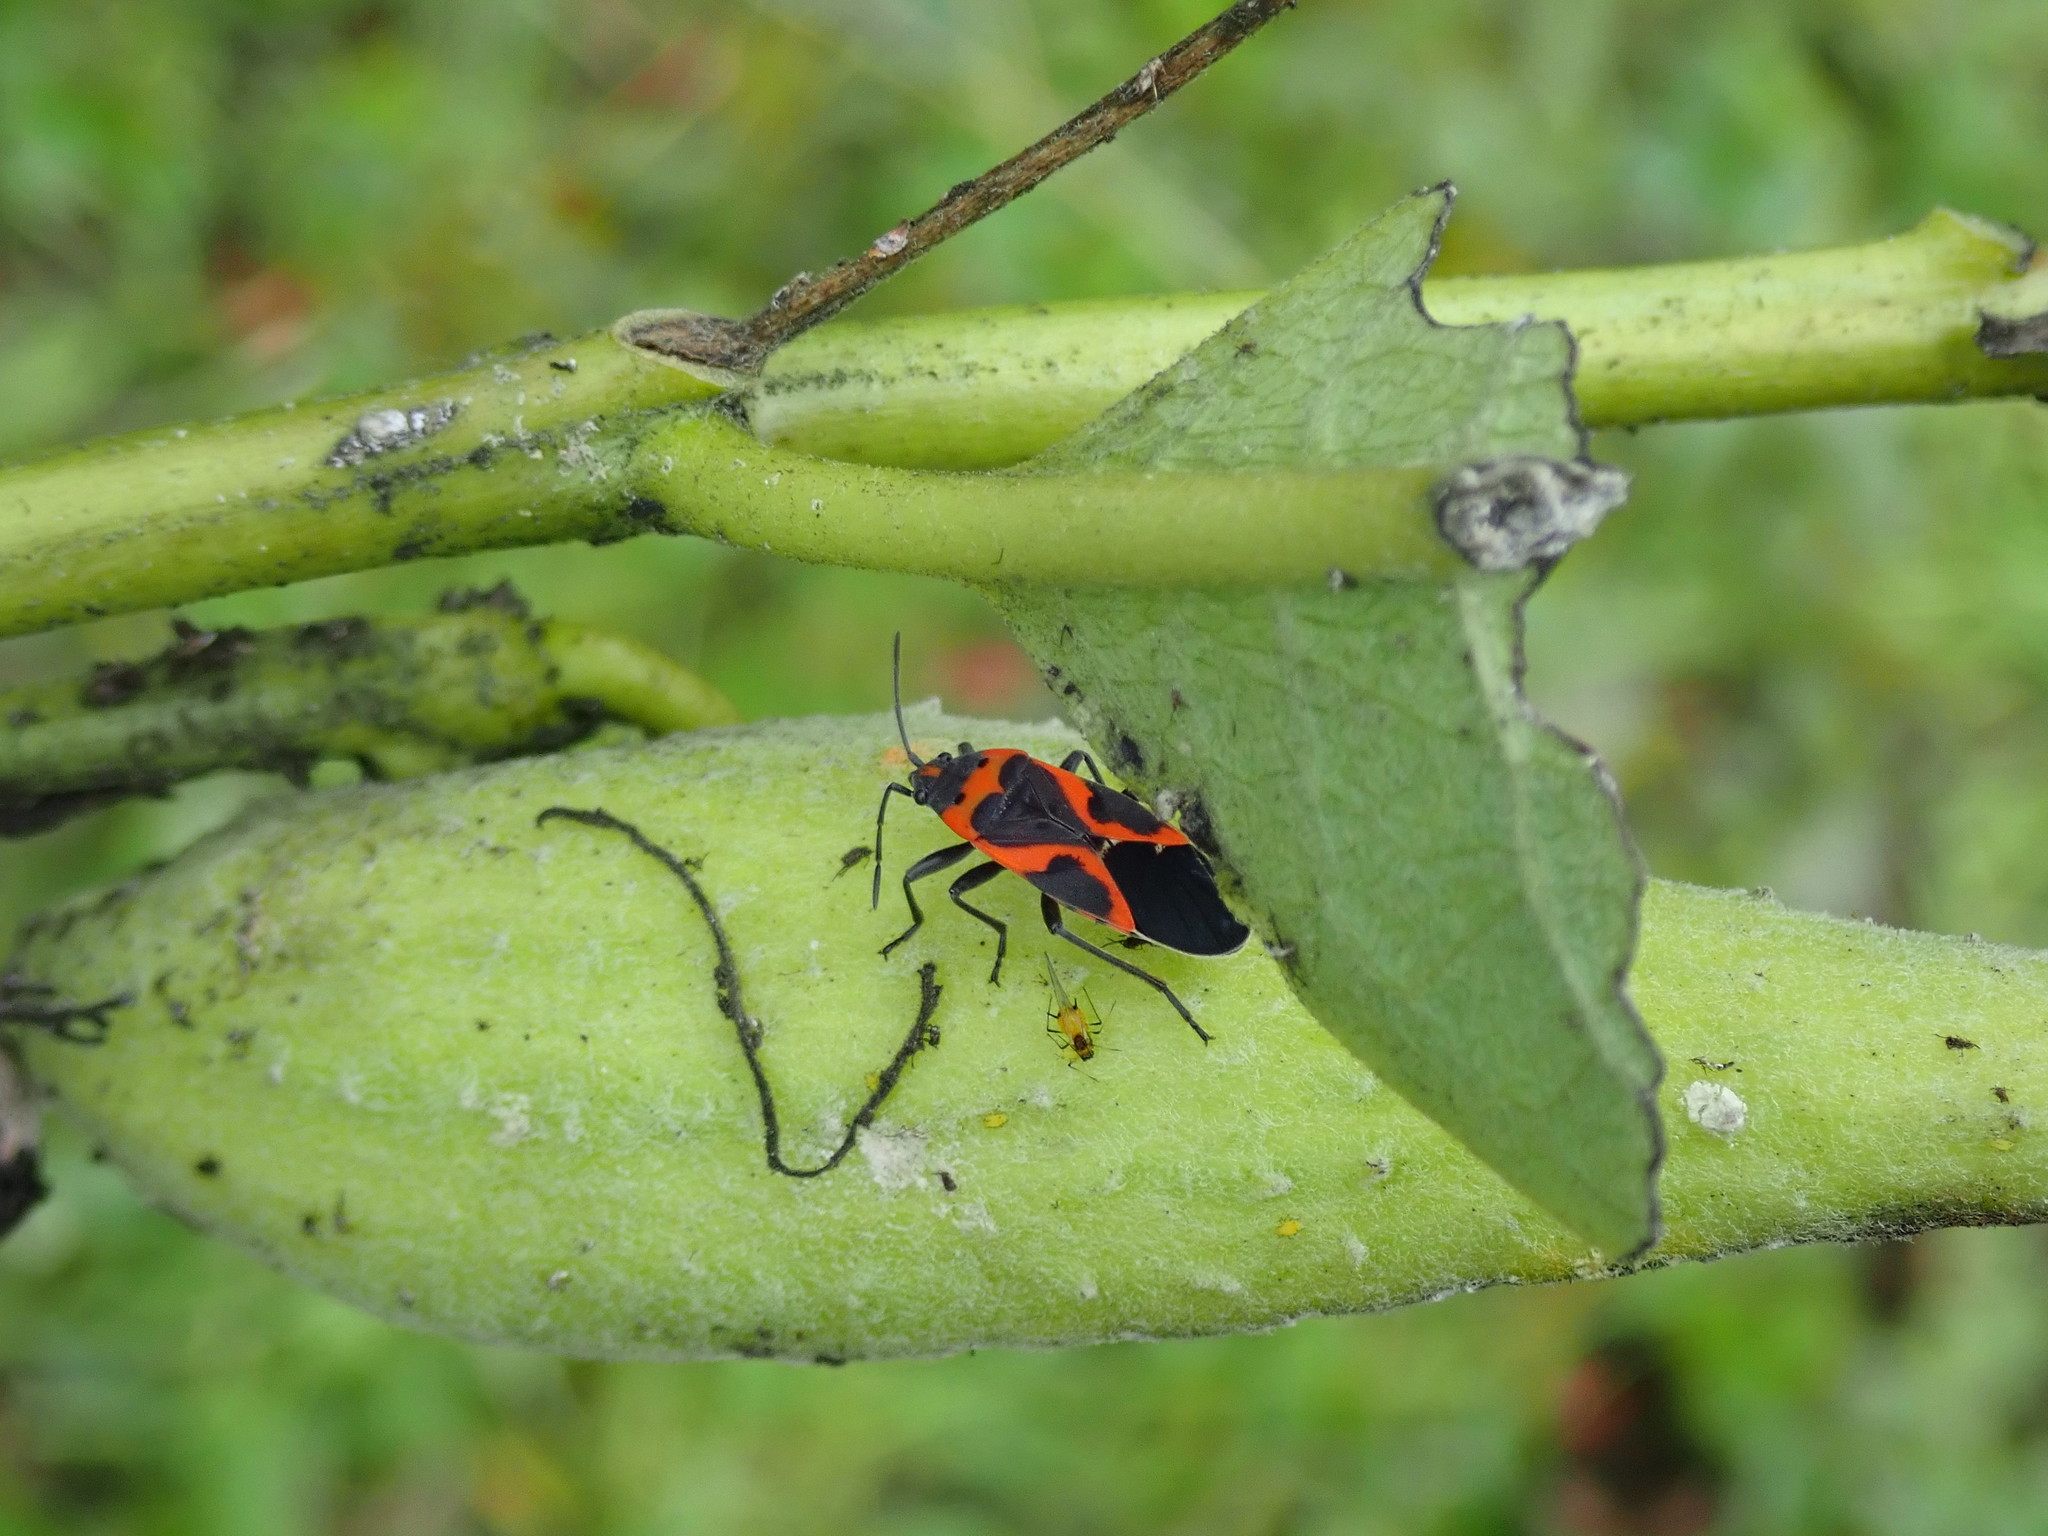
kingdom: Animalia
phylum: Arthropoda
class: Insecta
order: Hemiptera
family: Lygaeidae
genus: Lygaeus
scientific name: Lygaeus kalmii
